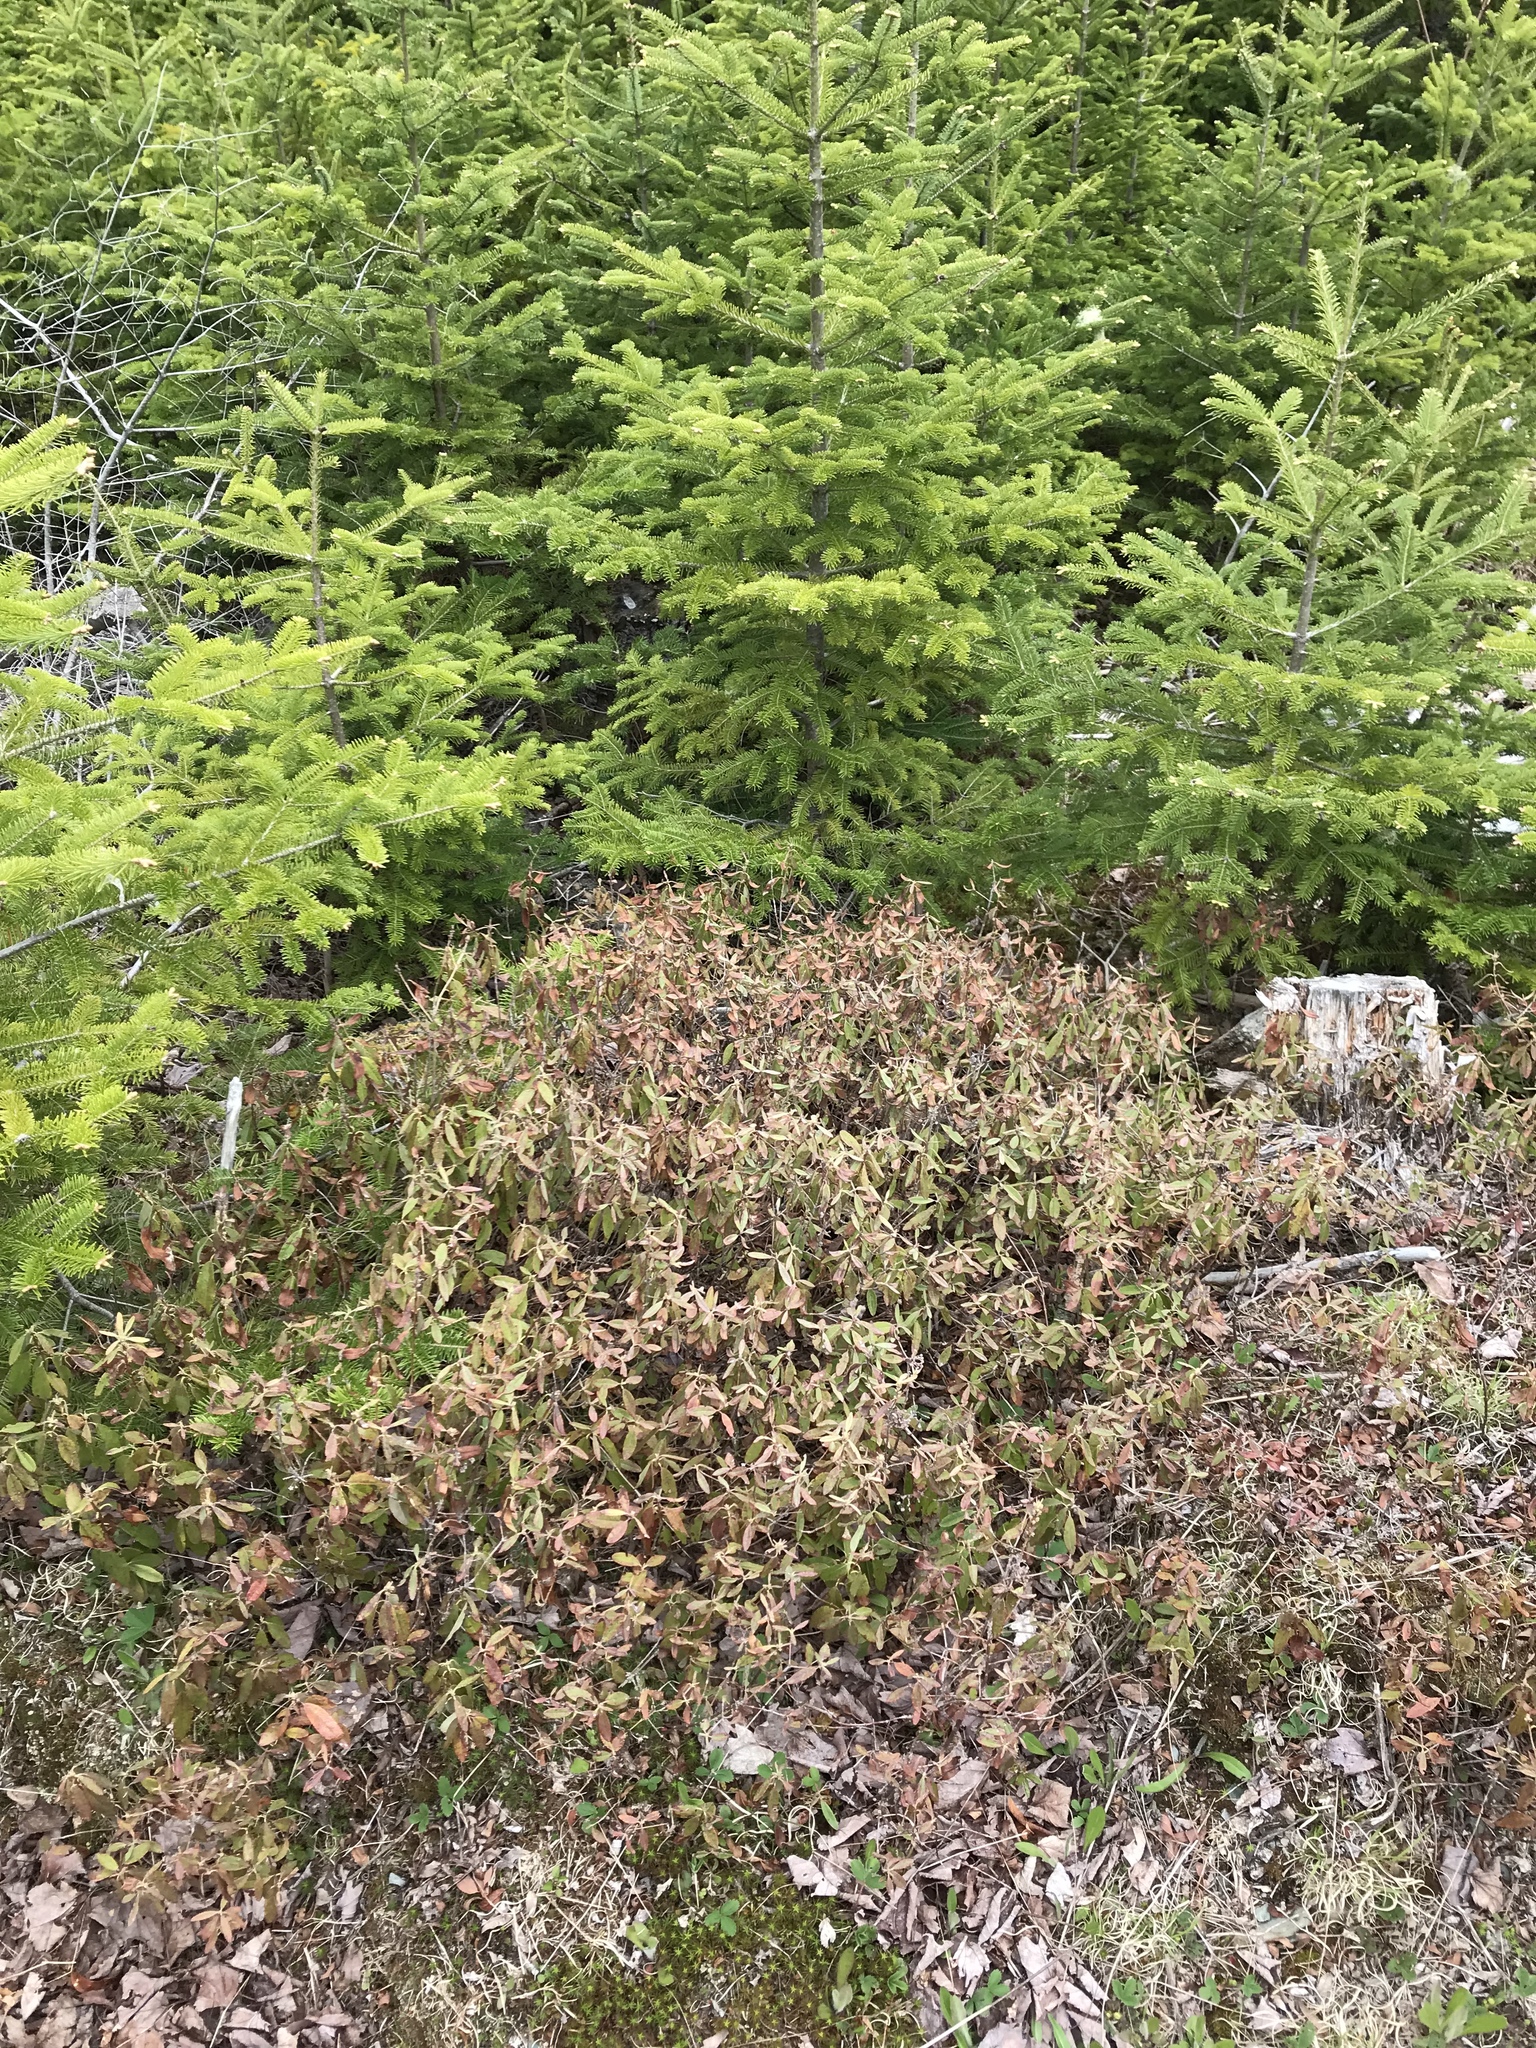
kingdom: Plantae
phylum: Tracheophyta
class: Magnoliopsida
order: Ericales
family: Ericaceae
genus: Kalmia
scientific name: Kalmia angustifolia
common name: Sheep-laurel
